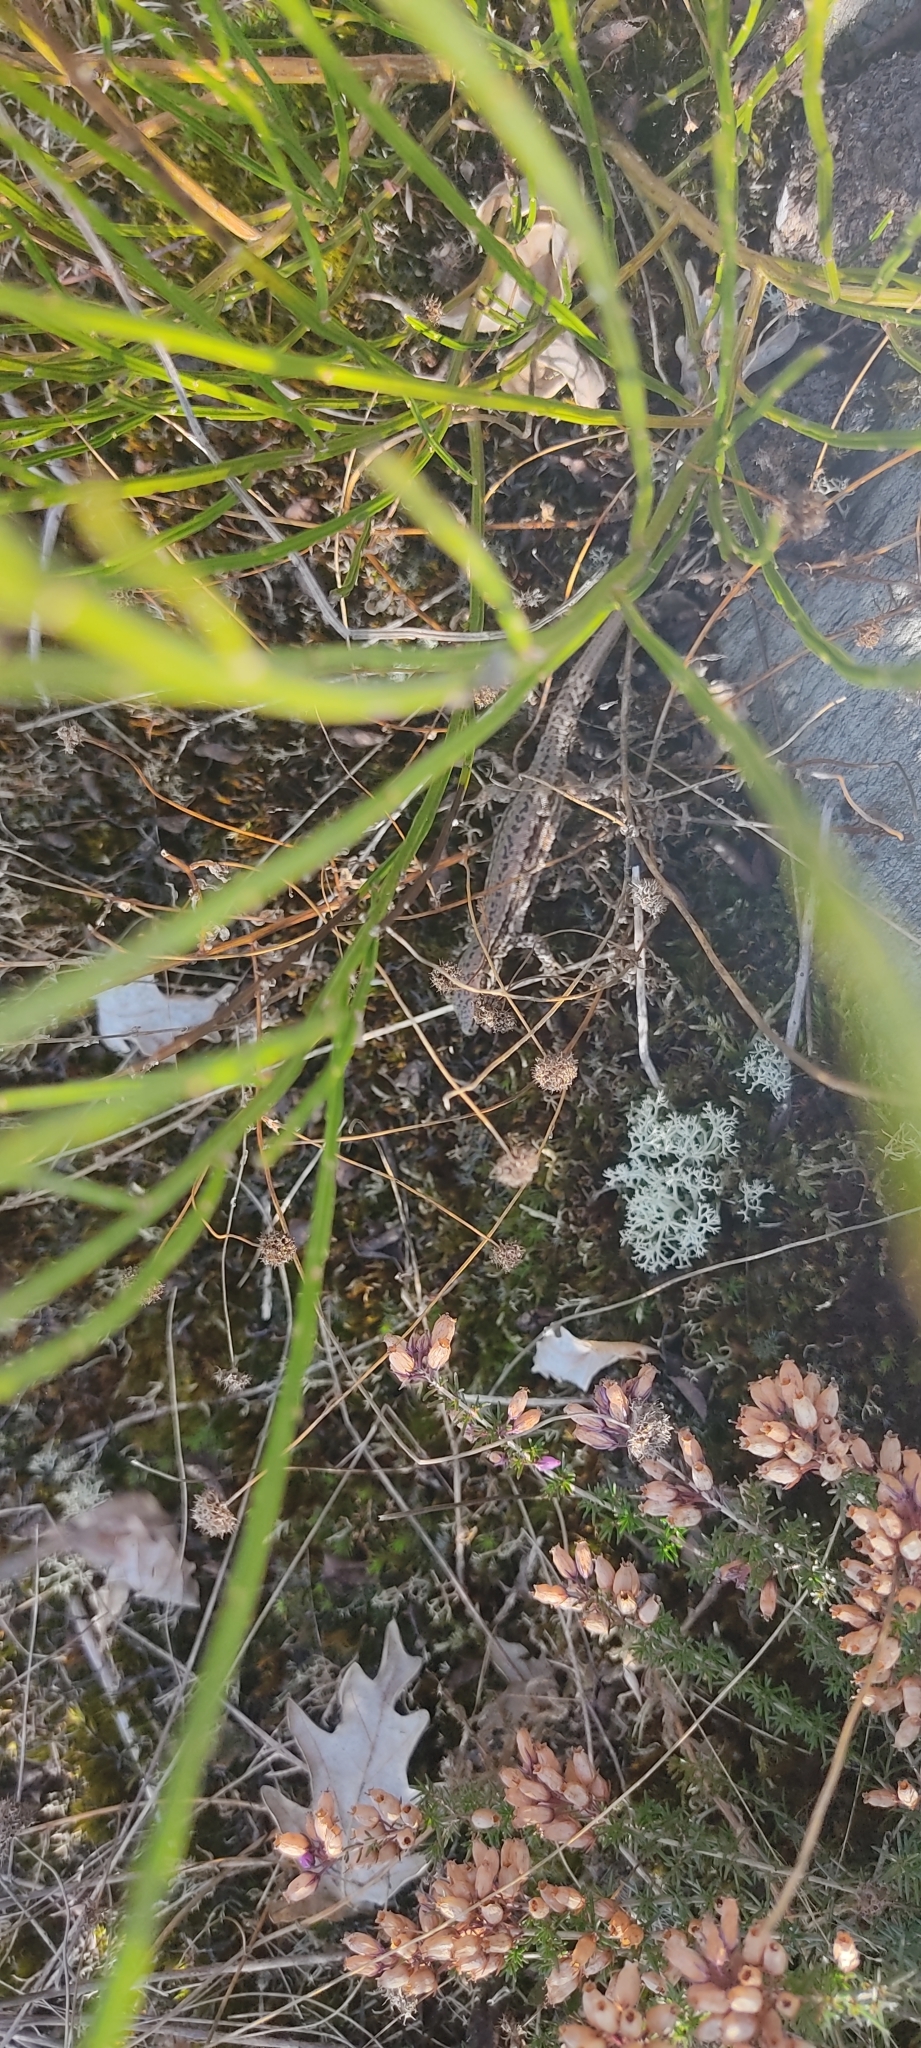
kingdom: Animalia
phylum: Chordata
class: Squamata
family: Lacertidae
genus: Podarcis
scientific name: Podarcis muralis
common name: Common wall lizard
